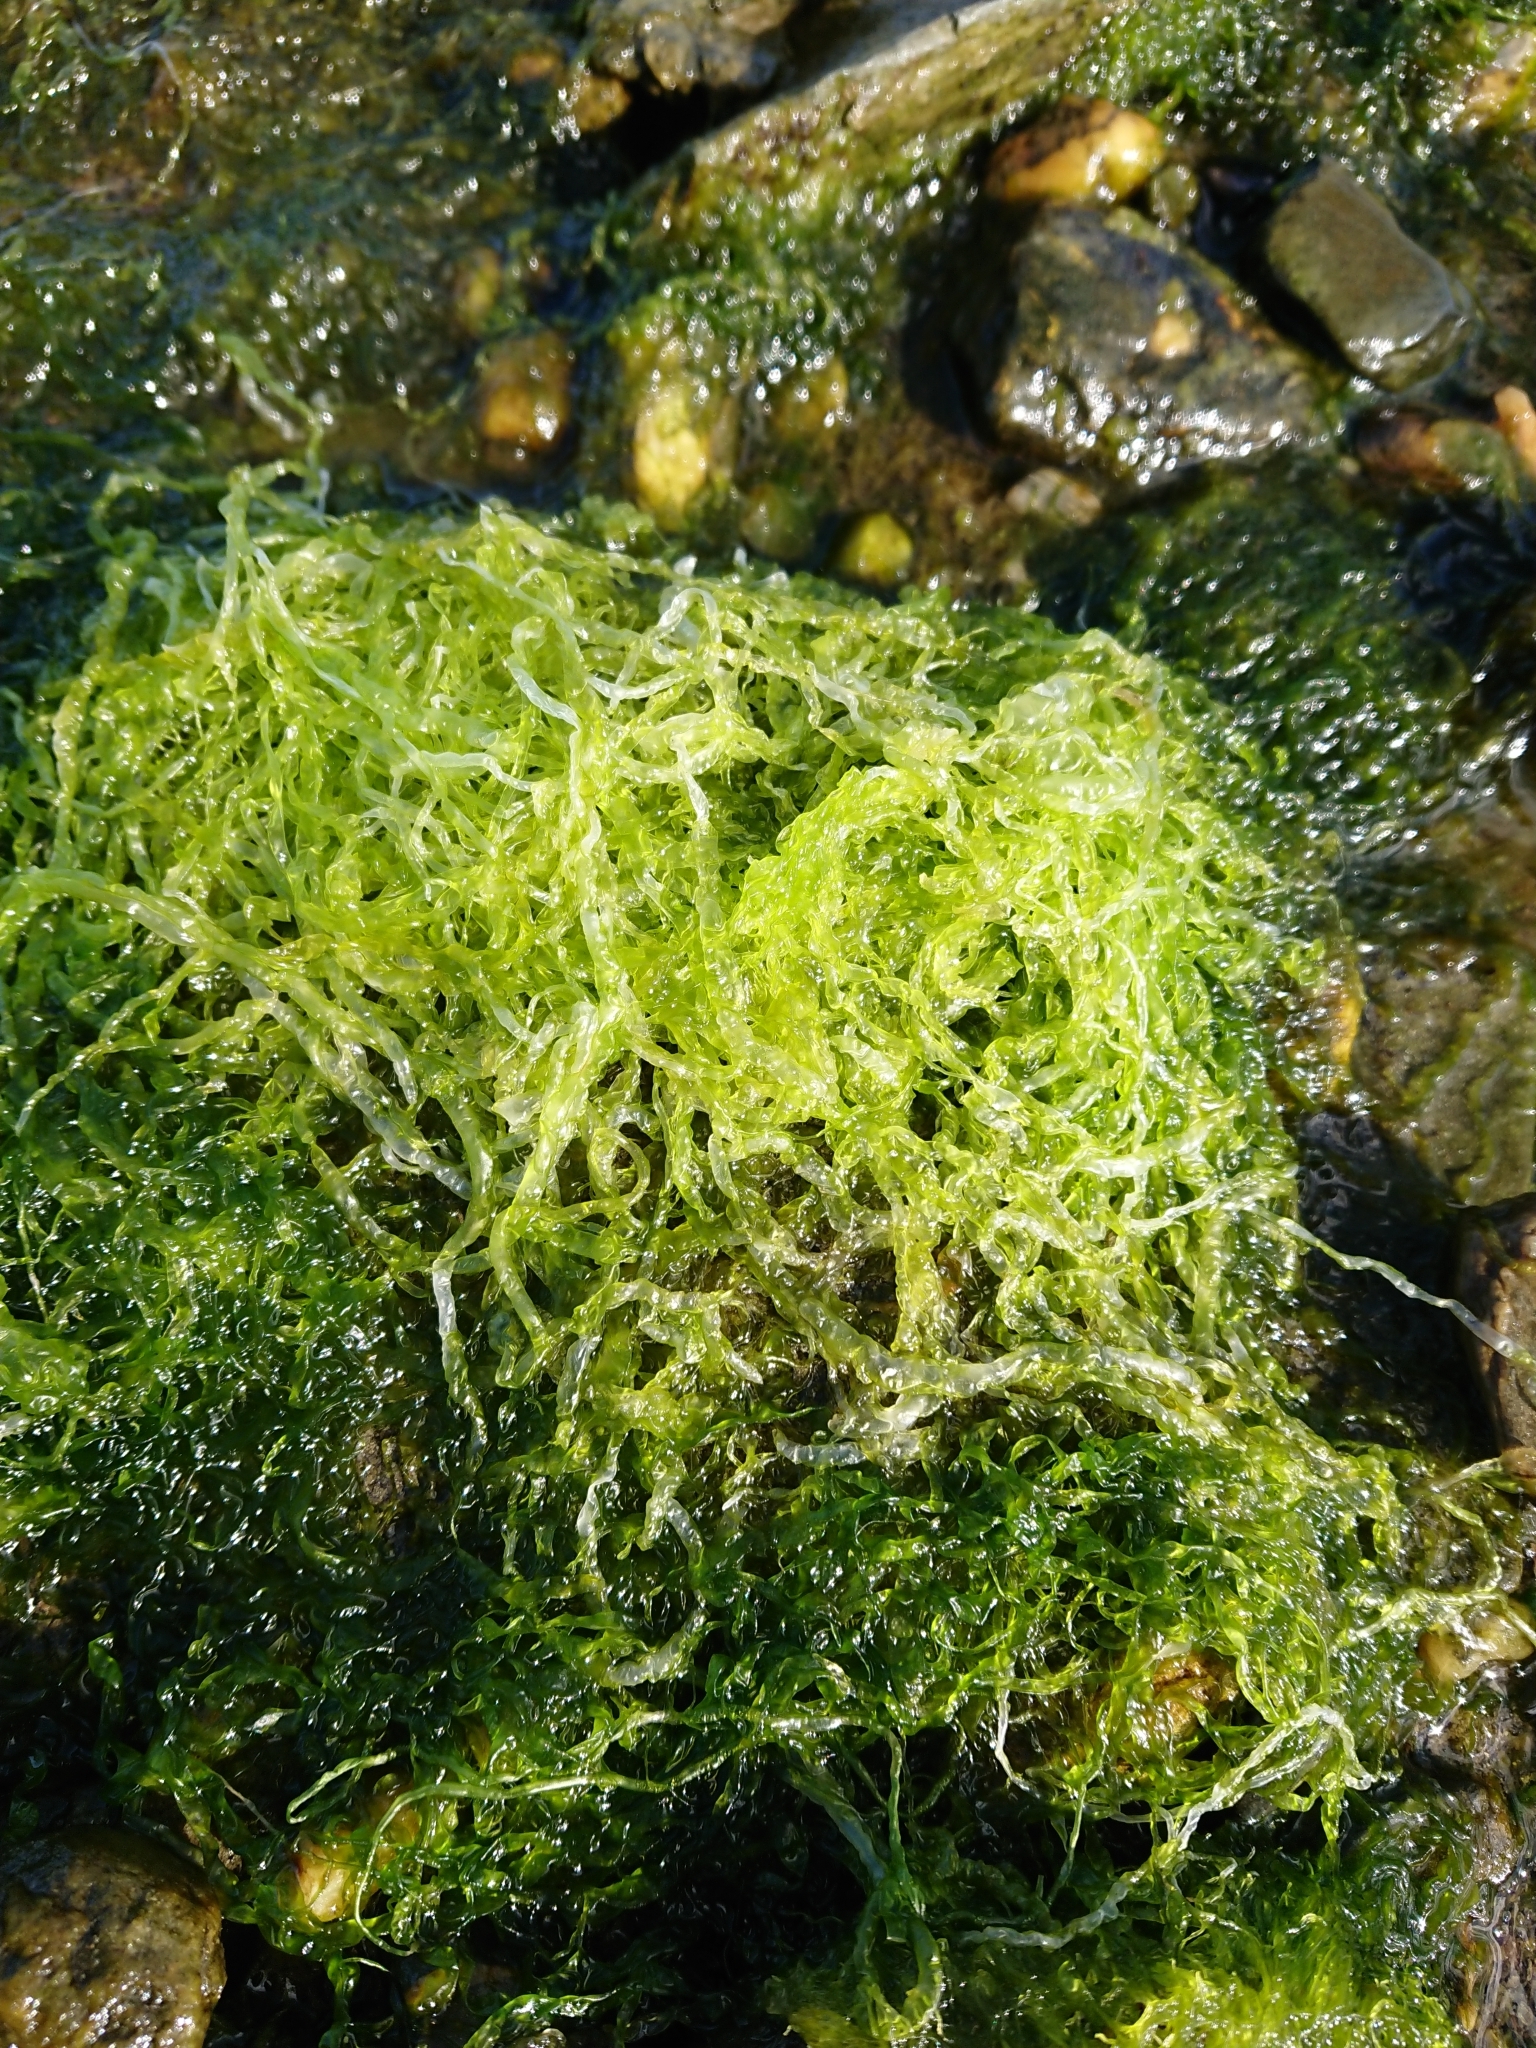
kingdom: Plantae
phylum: Chlorophyta
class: Ulvophyceae
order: Ulvales
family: Ulvaceae
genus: Ulva
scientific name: Ulva intestinalis
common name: Gut weed
